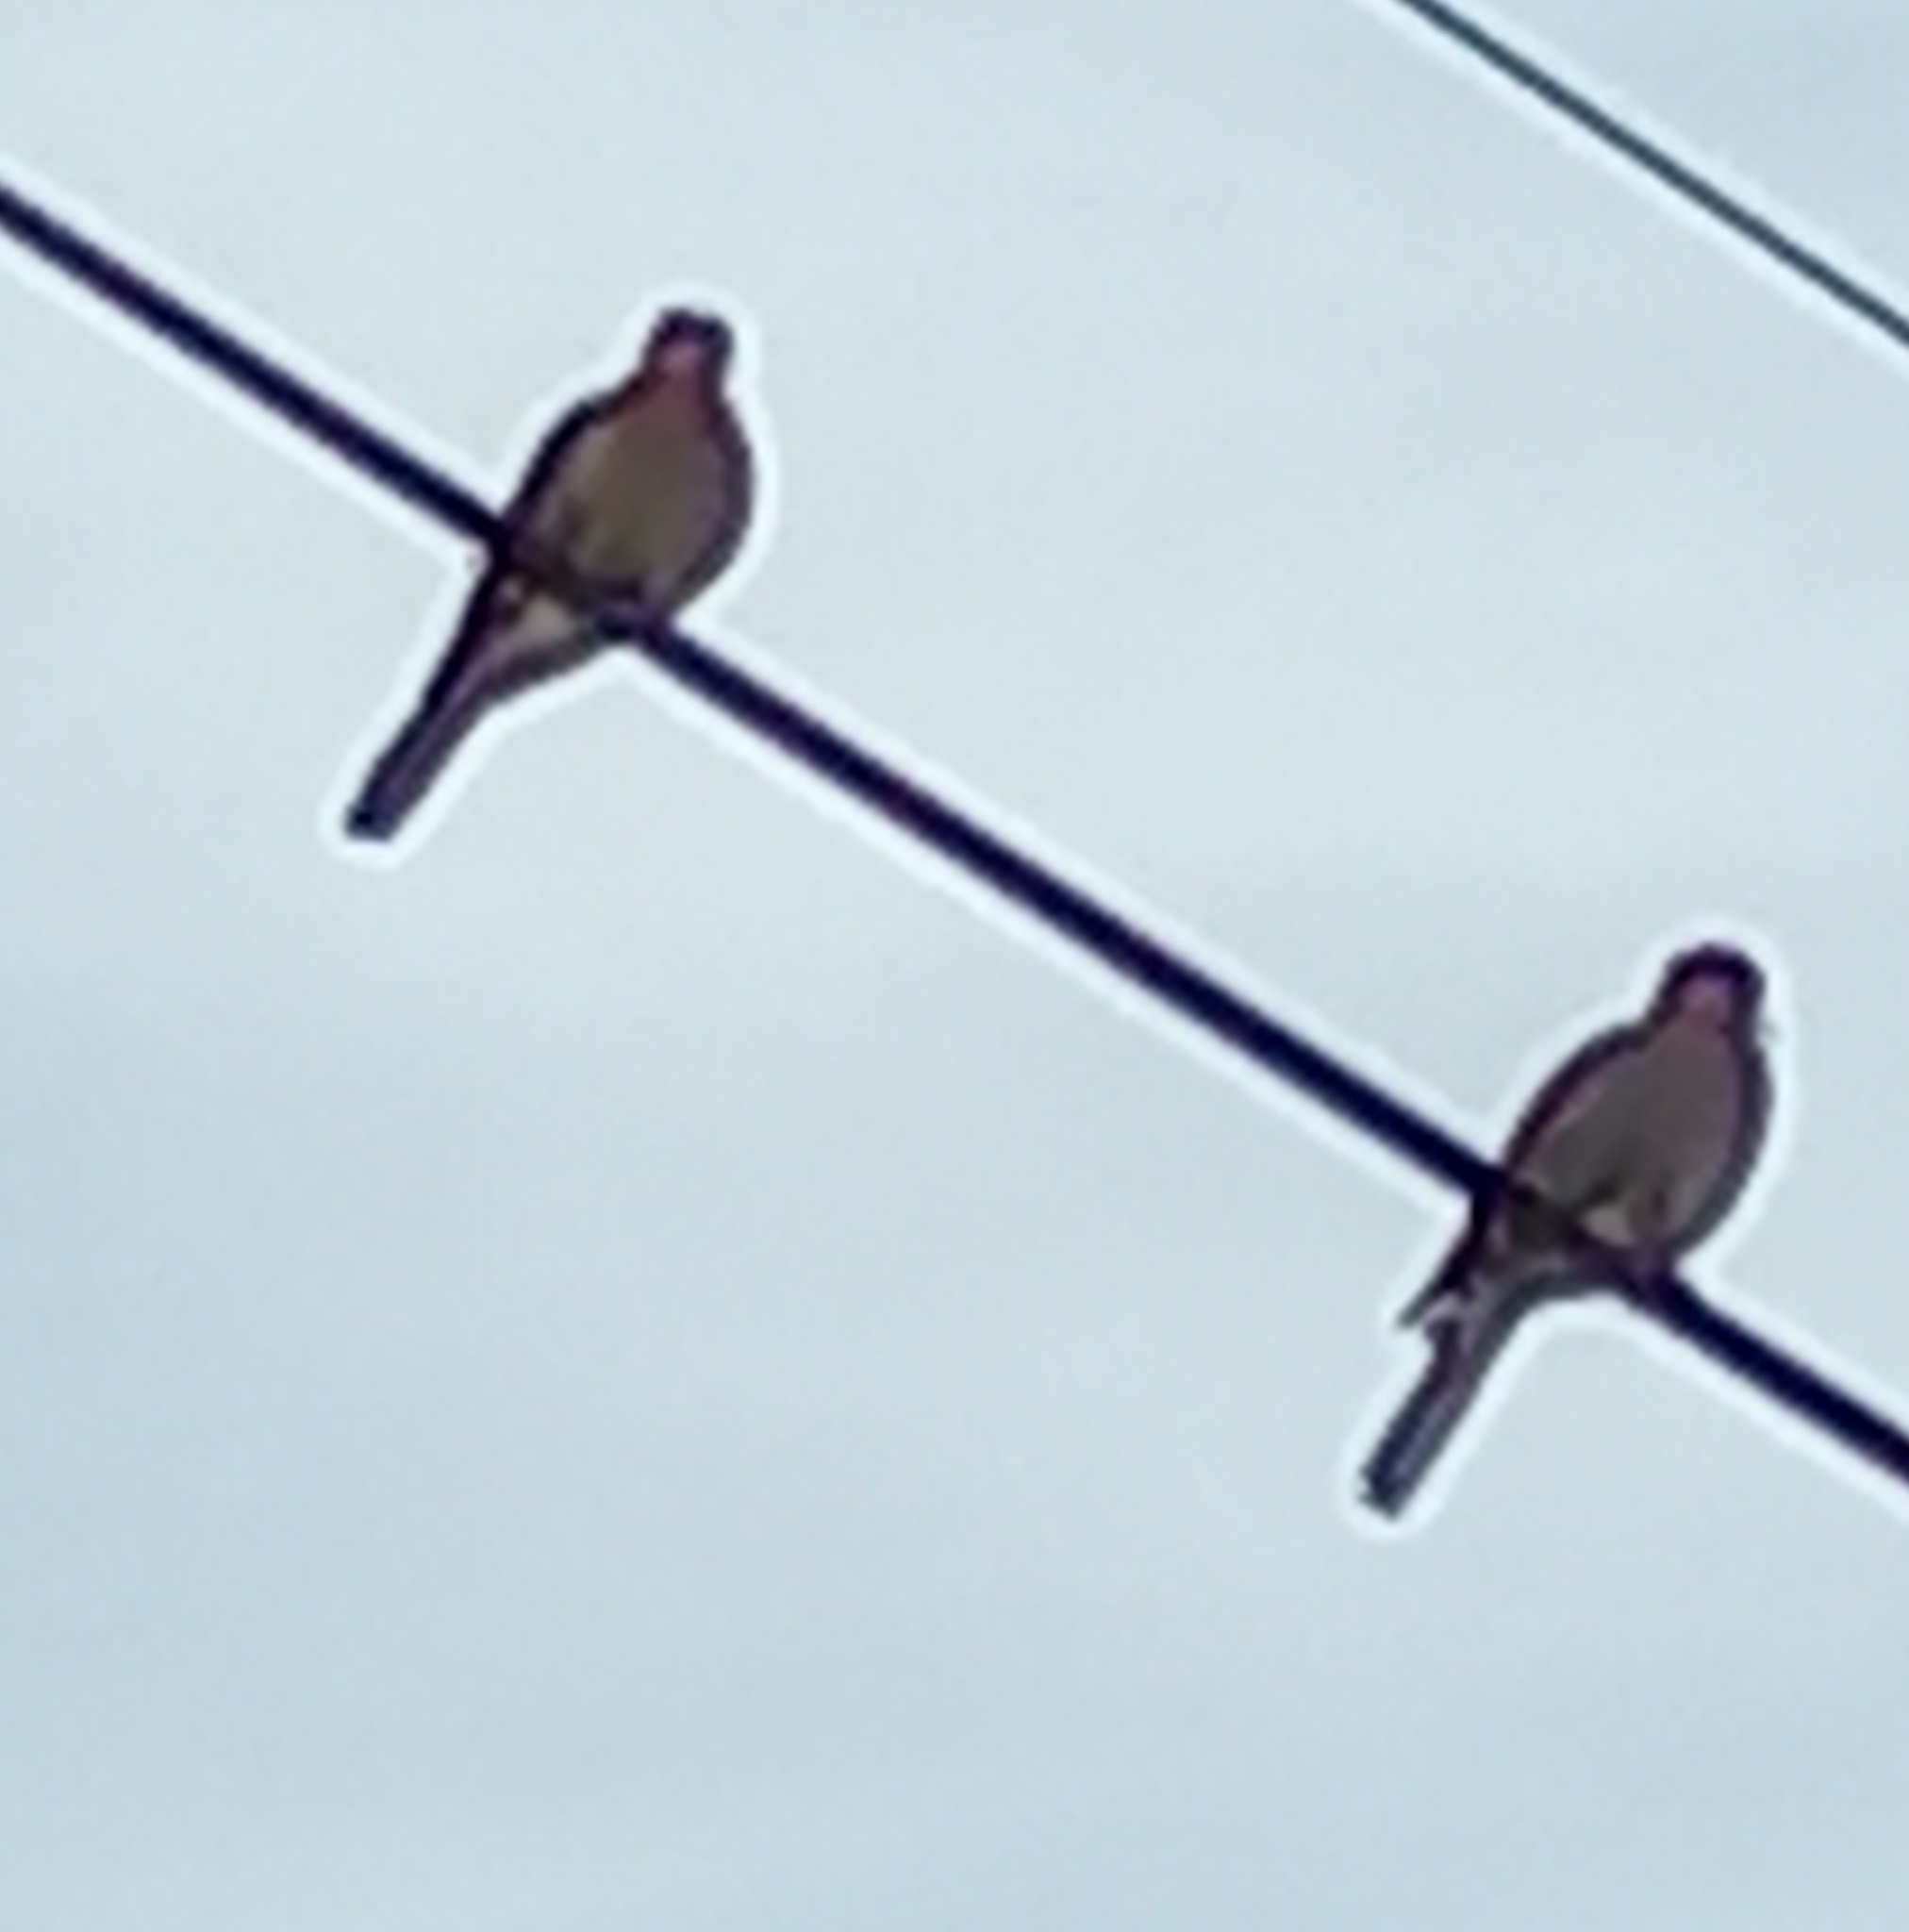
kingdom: Animalia
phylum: Chordata
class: Aves
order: Columbiformes
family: Columbidae
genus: Spilopelia
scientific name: Spilopelia senegalensis
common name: Laughing dove
